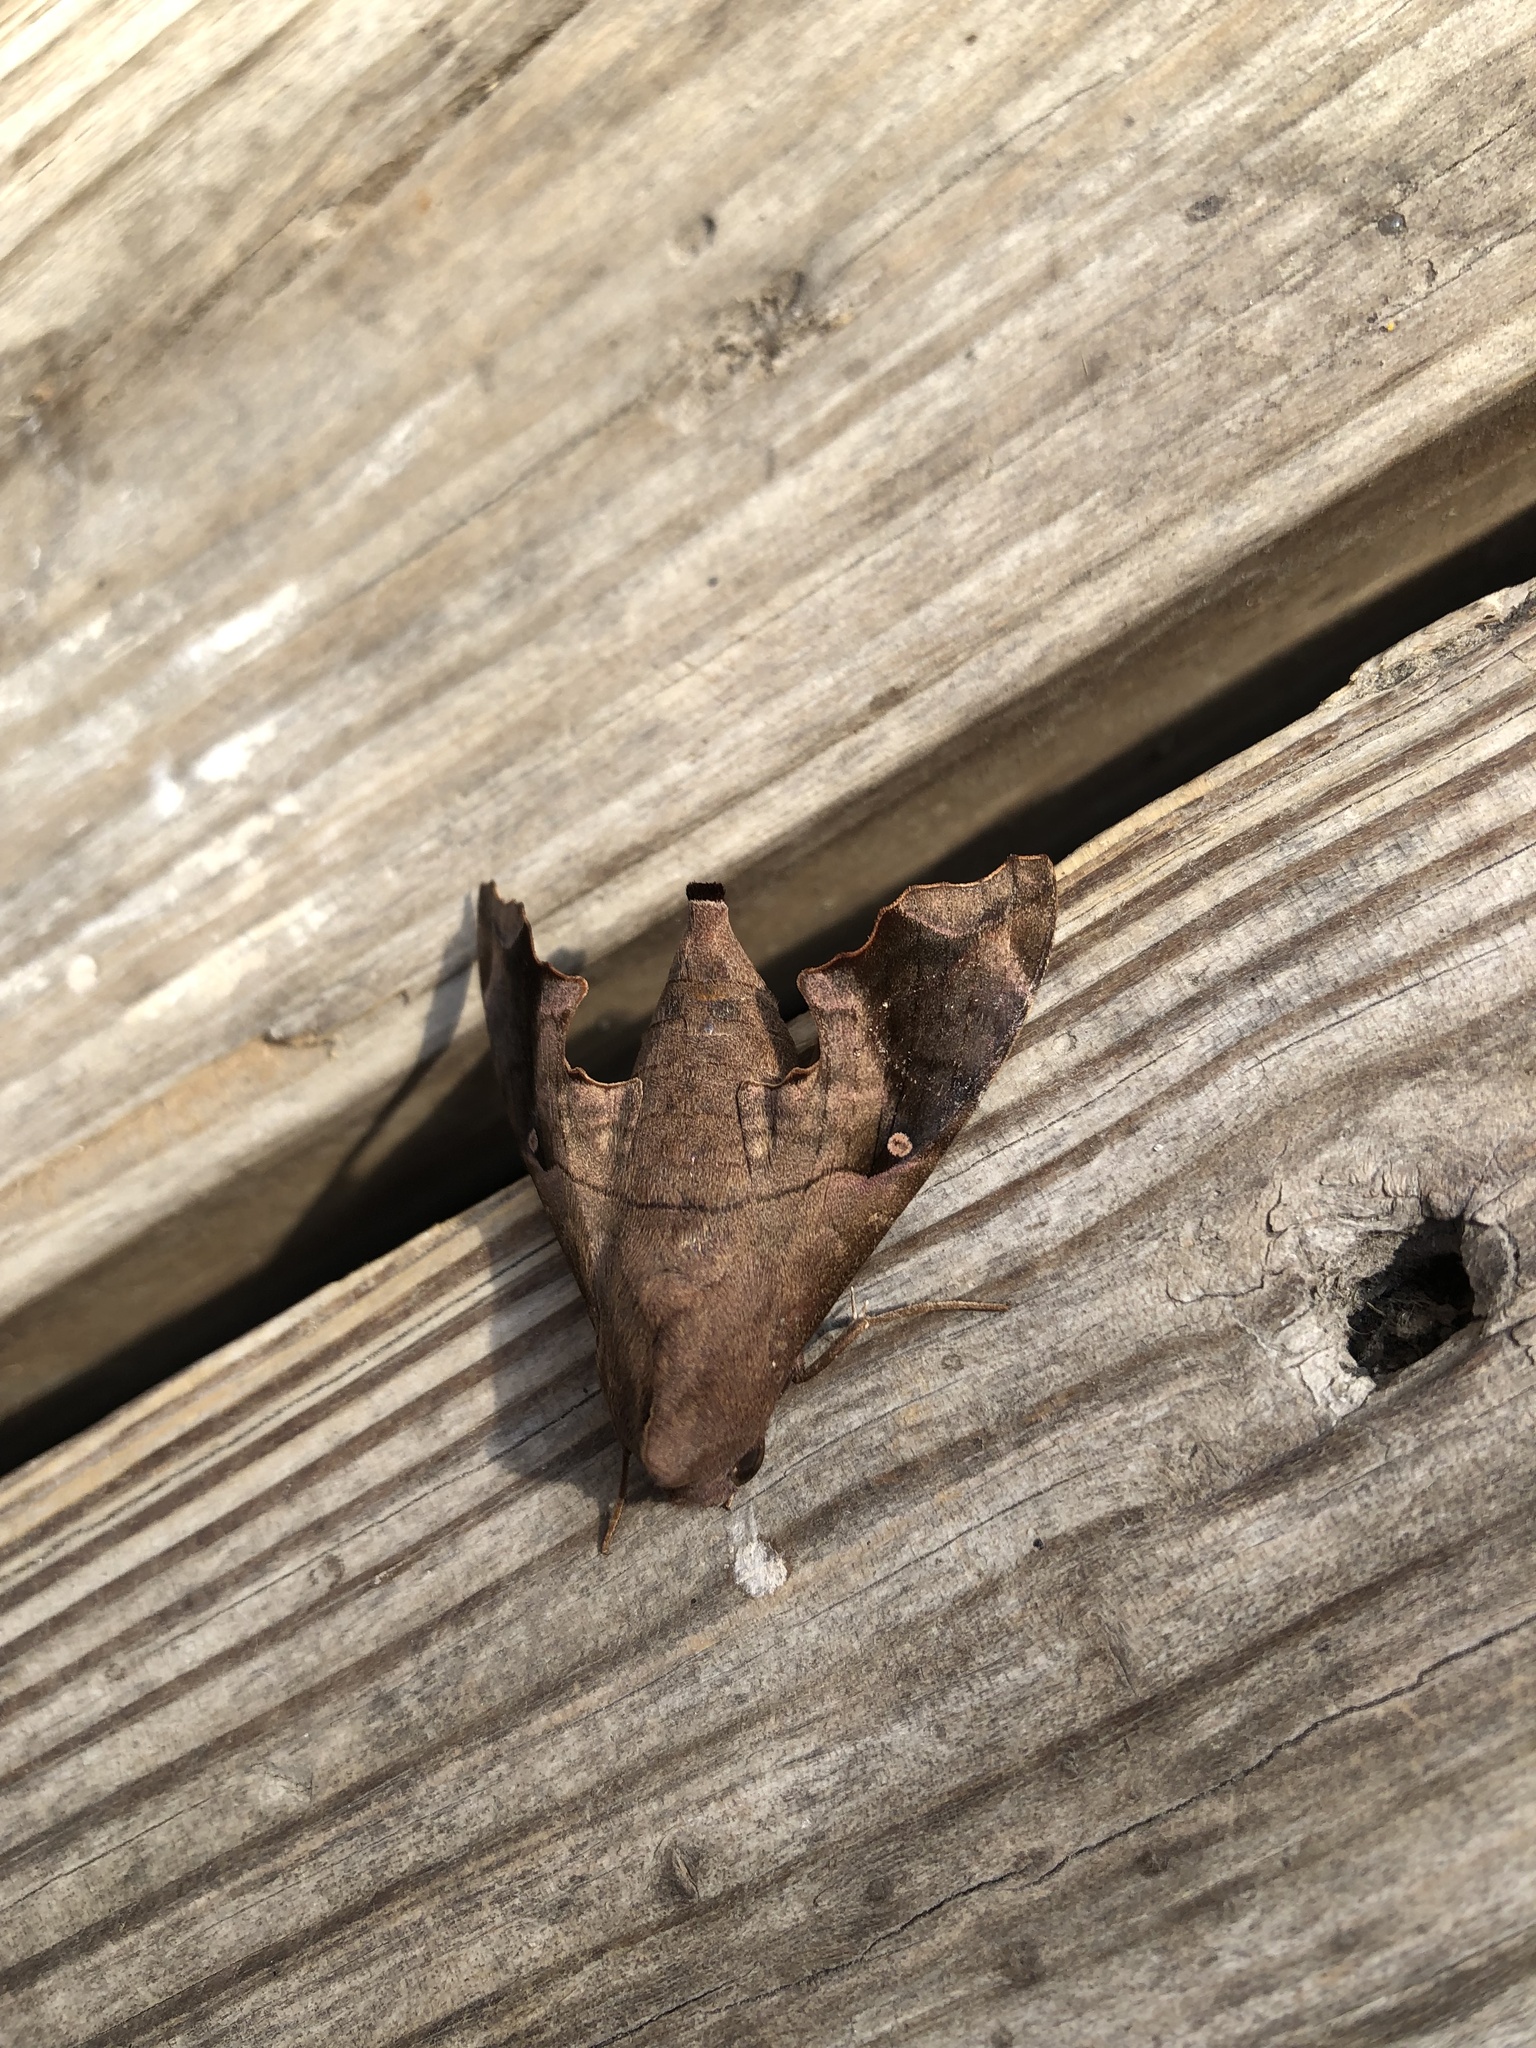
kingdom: Animalia
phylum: Arthropoda
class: Insecta
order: Lepidoptera
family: Sphingidae
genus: Enyo
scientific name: Enyo lugubris
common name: Mournful sphinx
